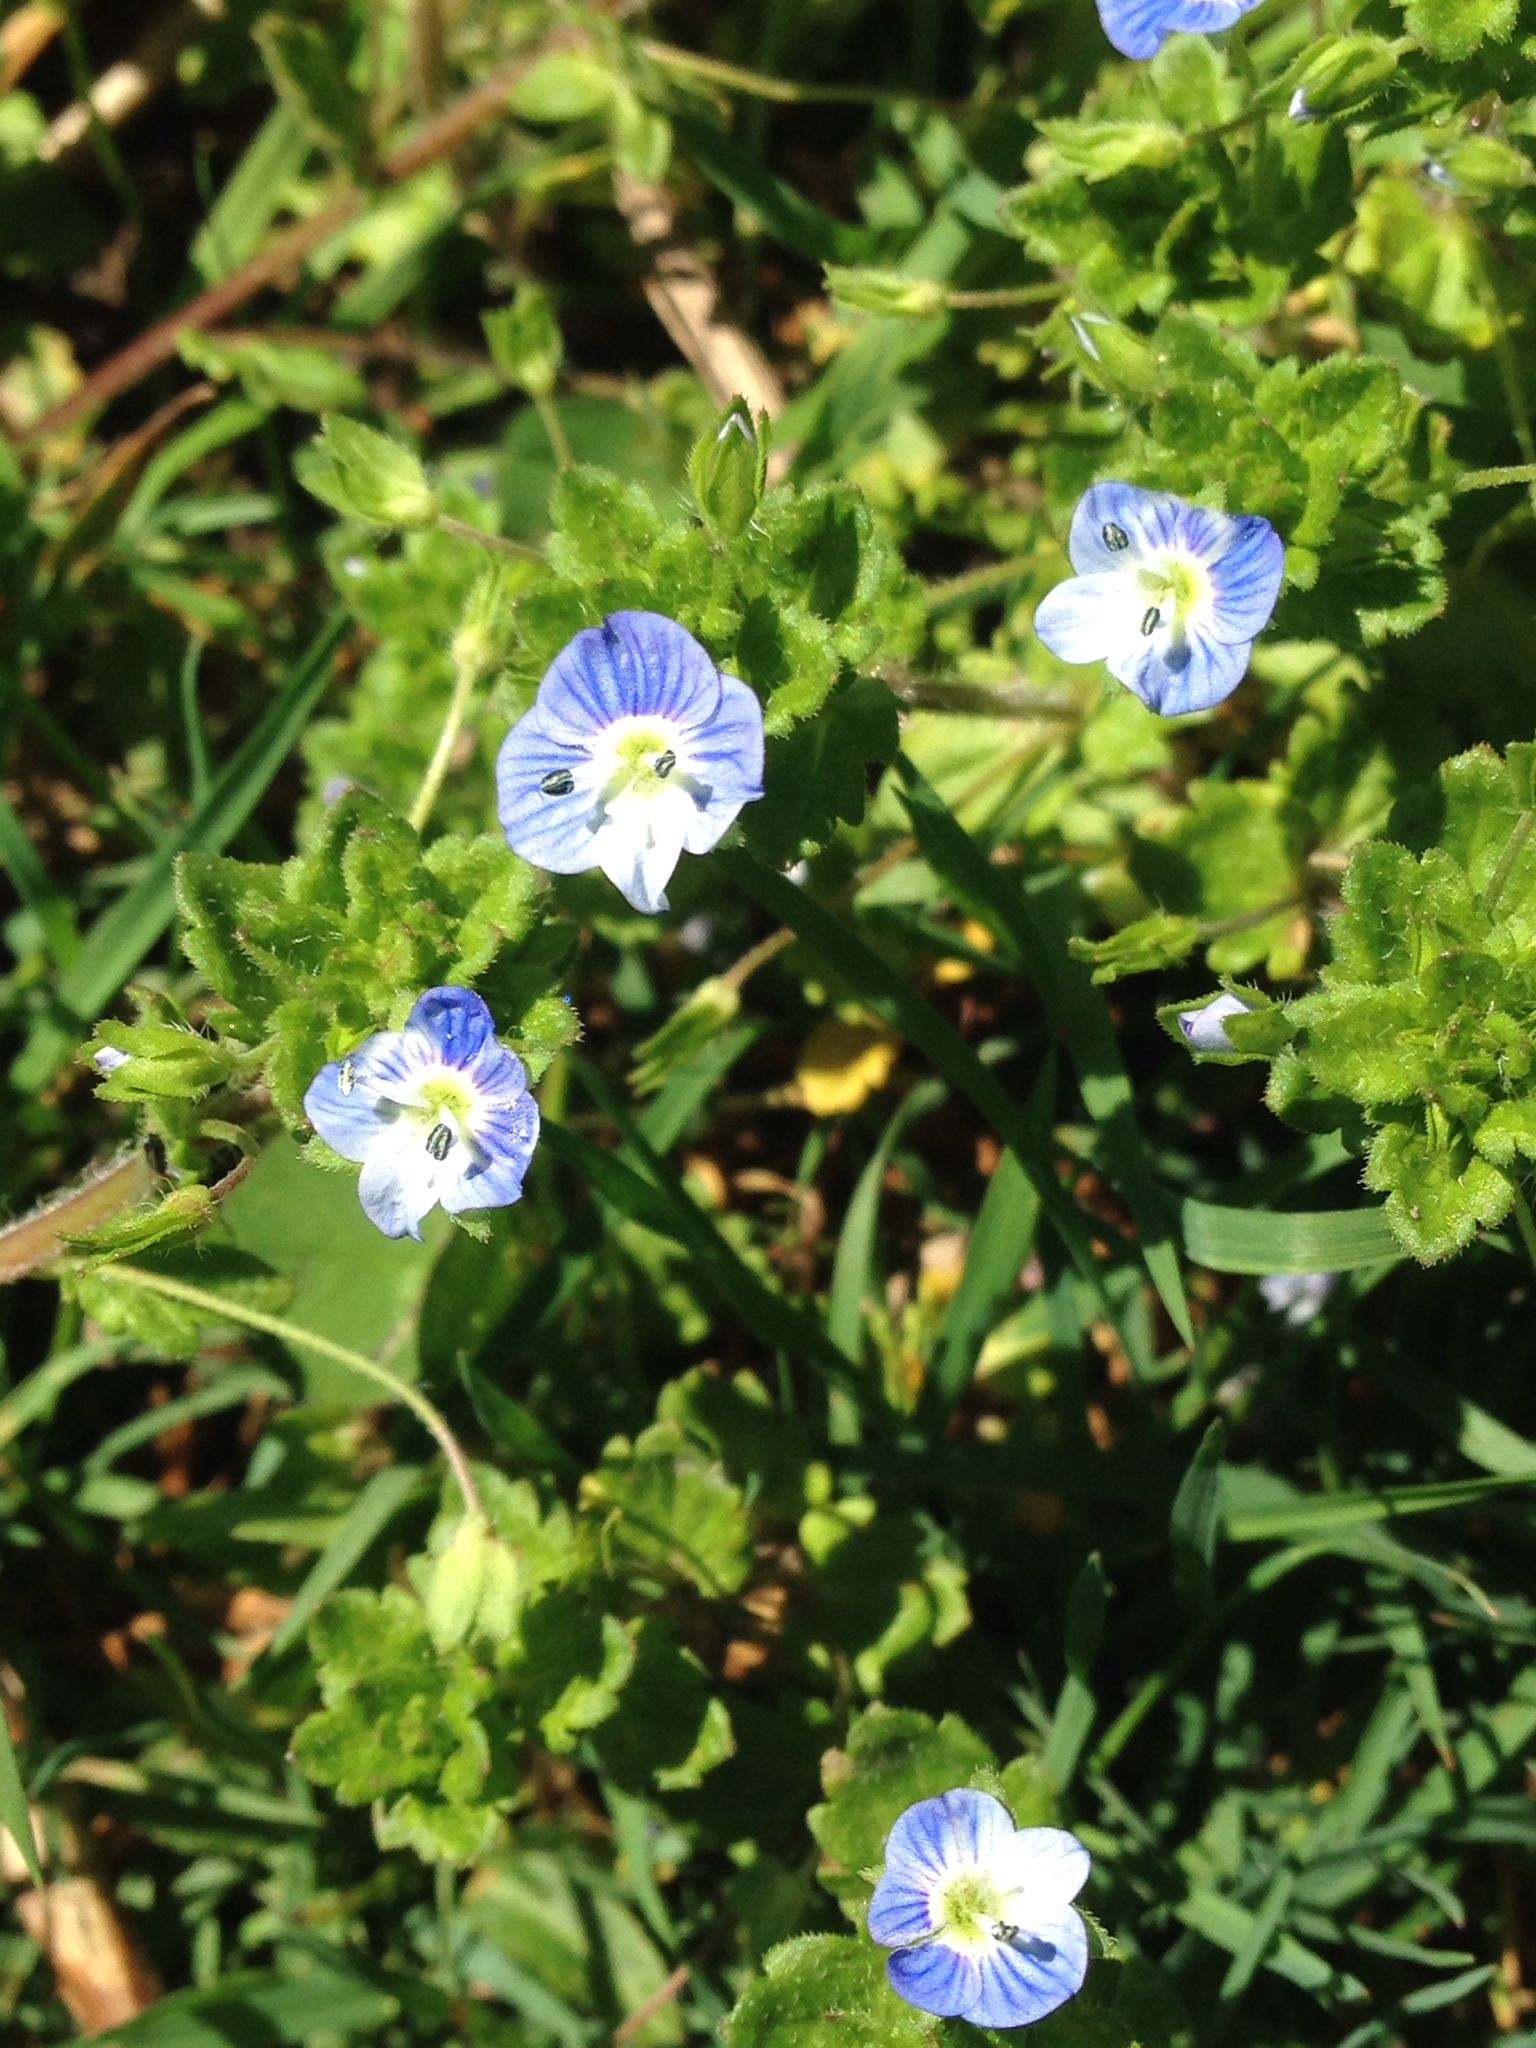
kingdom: Plantae
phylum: Tracheophyta
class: Magnoliopsida
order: Lamiales
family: Plantaginaceae
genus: Veronica
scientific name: Veronica persica
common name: Common field-speedwell
